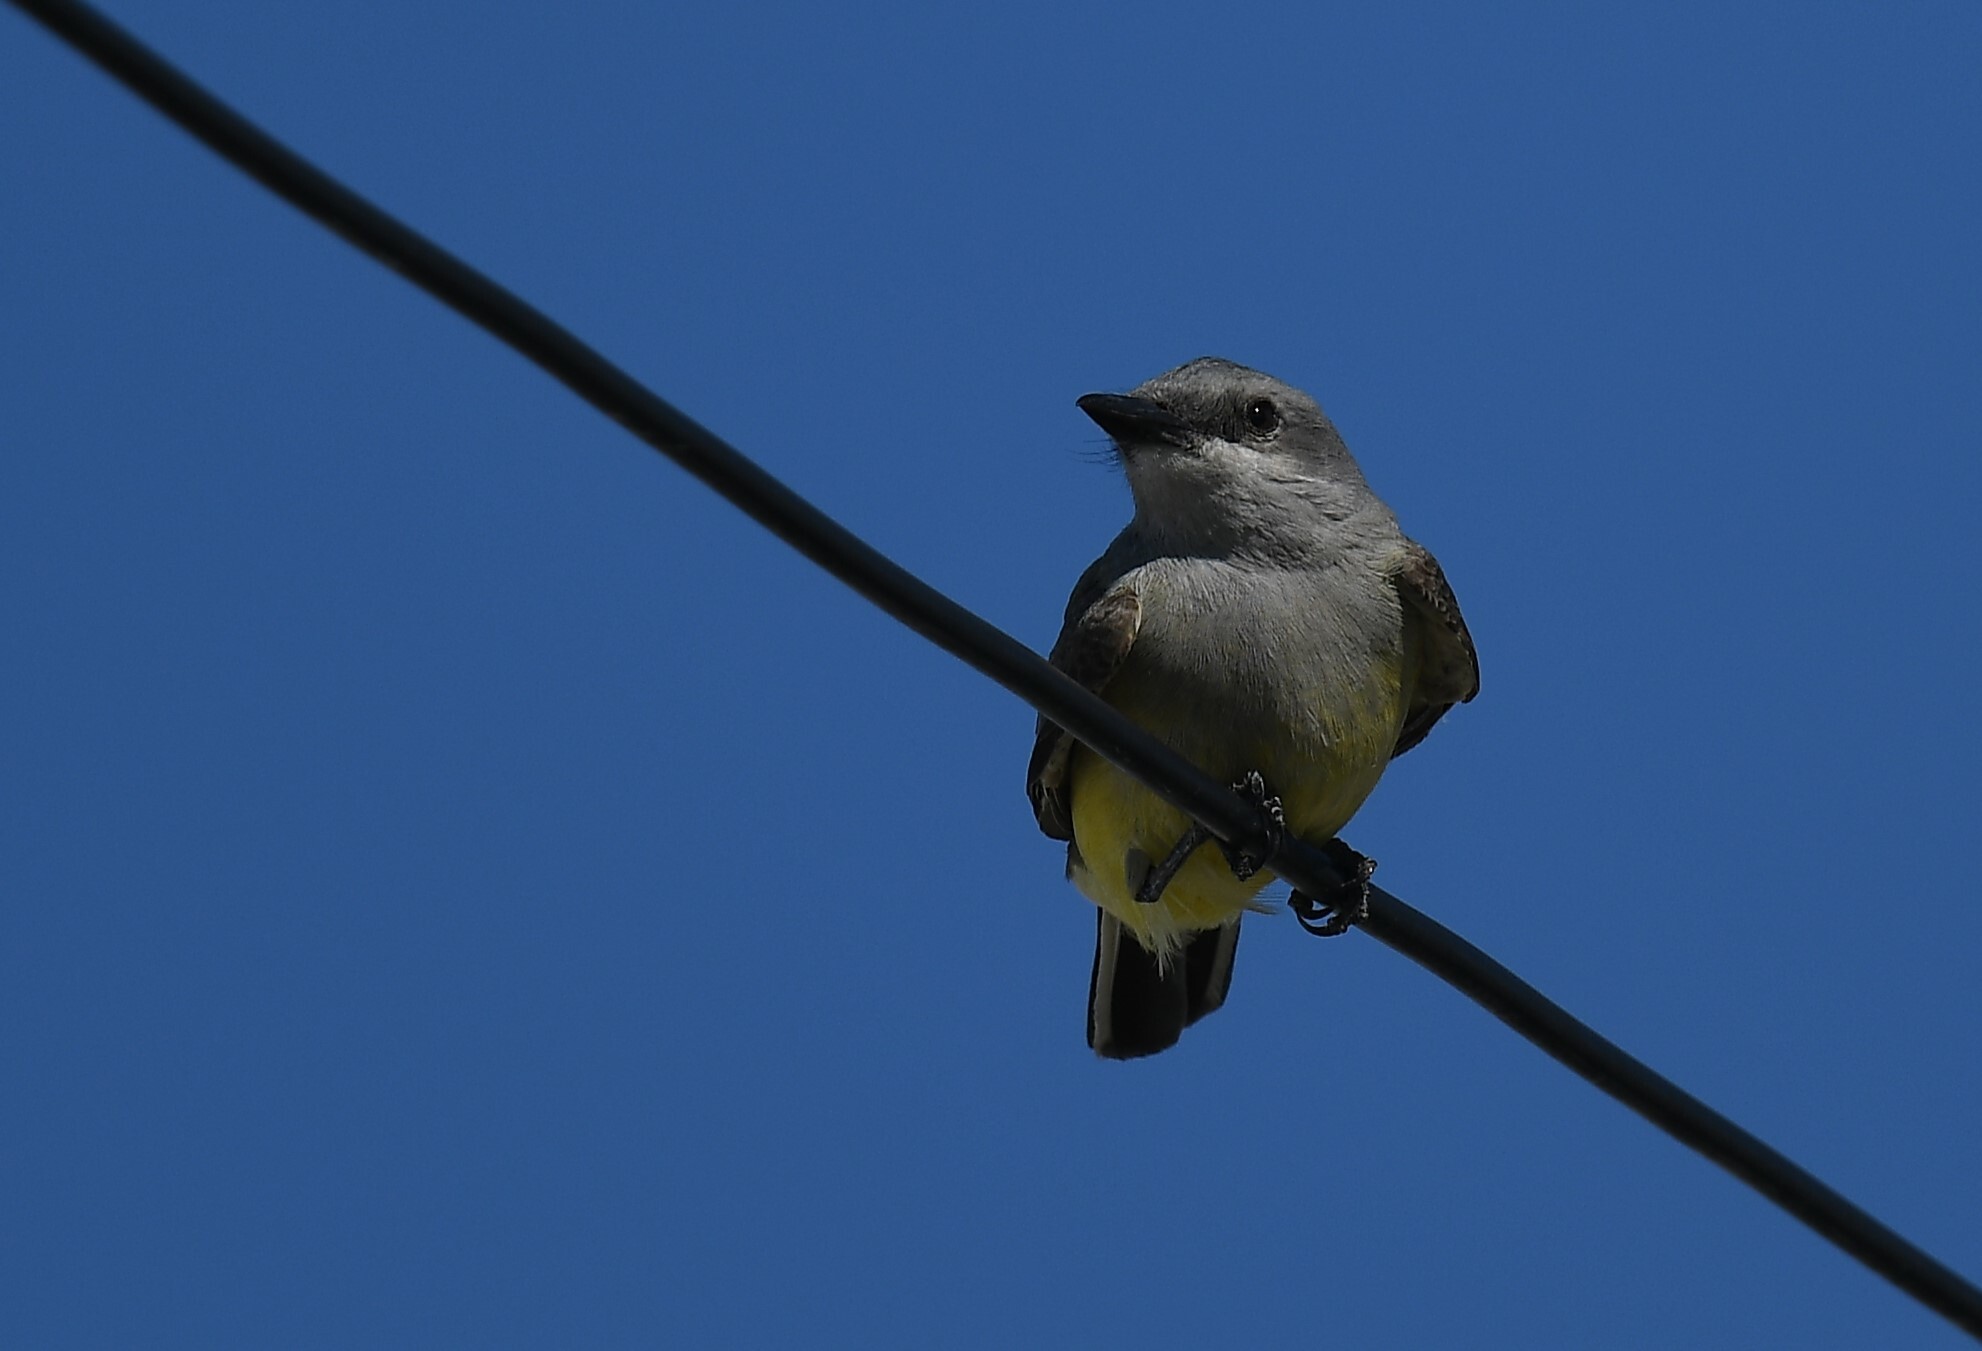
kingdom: Animalia
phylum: Chordata
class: Aves
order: Passeriformes
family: Tyrannidae
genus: Tyrannus
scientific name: Tyrannus verticalis
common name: Western kingbird
